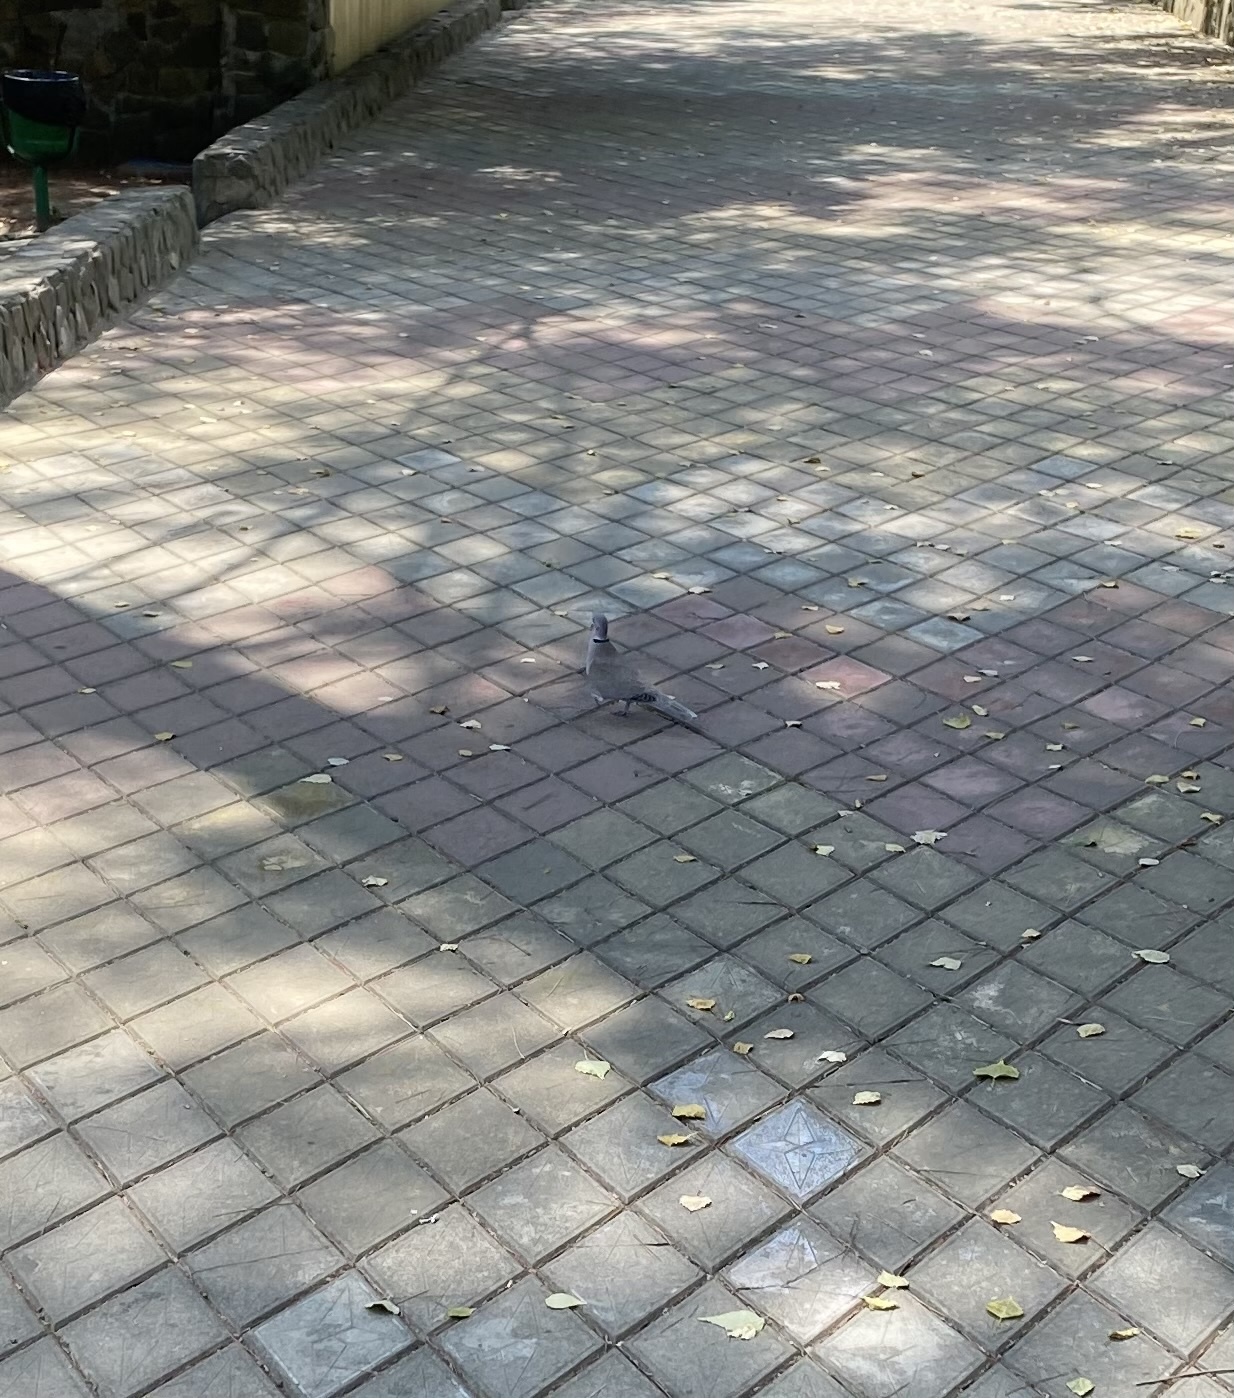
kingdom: Animalia
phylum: Chordata
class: Aves
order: Columbiformes
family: Columbidae
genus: Streptopelia
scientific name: Streptopelia decaocto
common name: Eurasian collared dove
